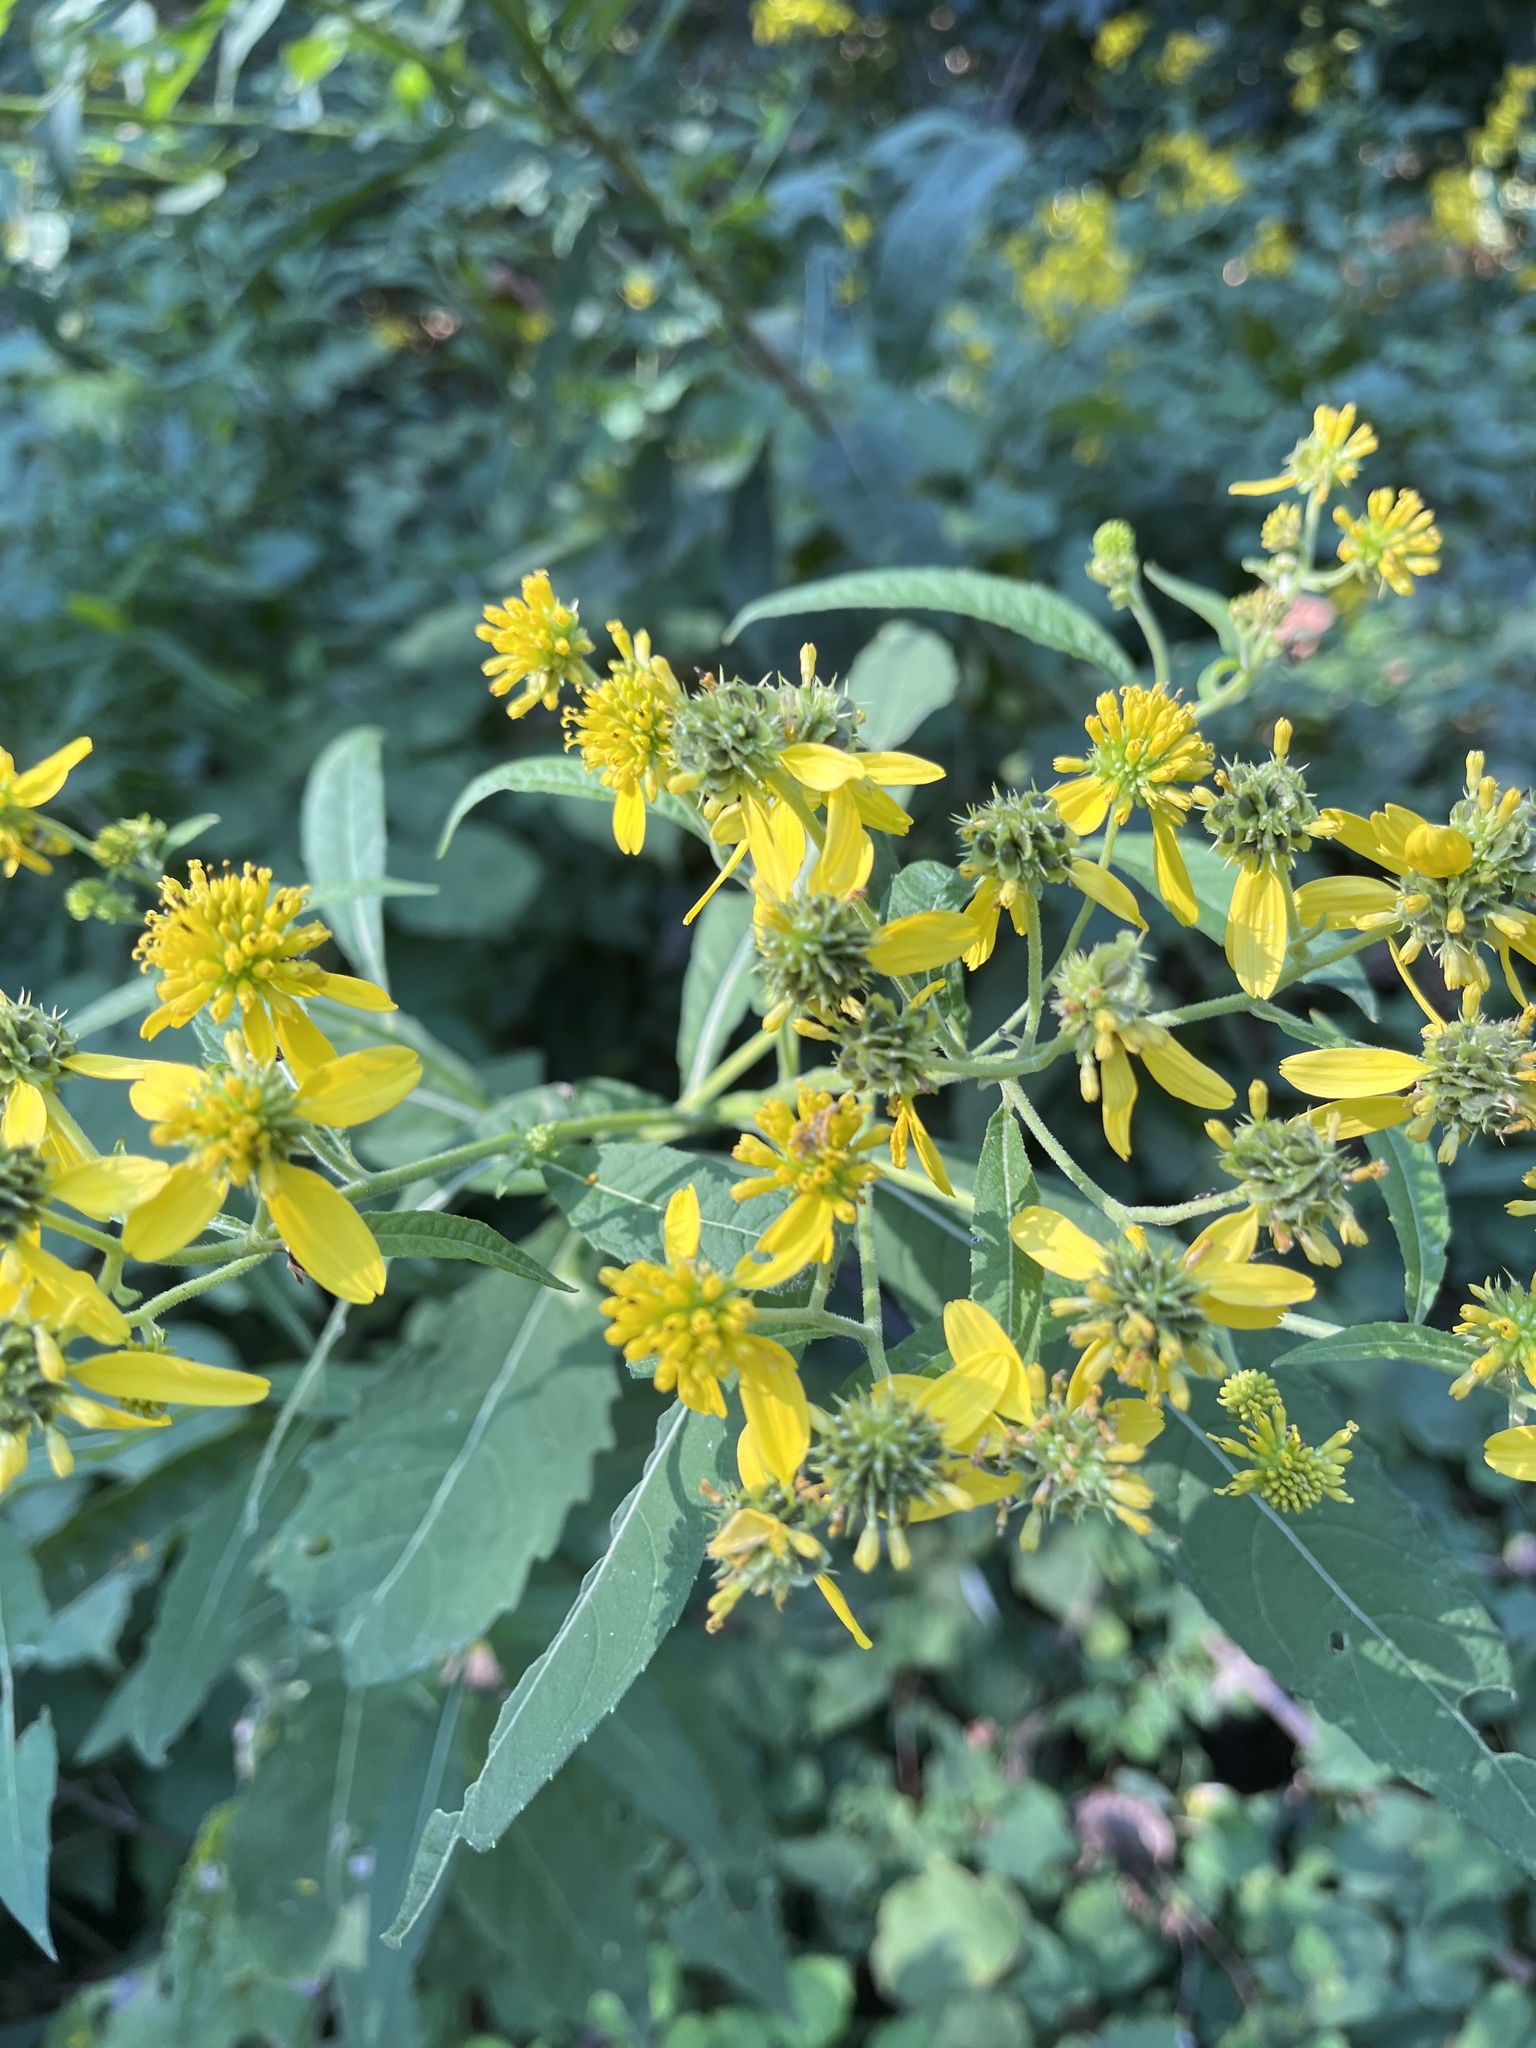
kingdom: Plantae
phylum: Tracheophyta
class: Magnoliopsida
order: Asterales
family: Asteraceae
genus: Verbesina
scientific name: Verbesina alternifolia
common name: Wingstem
